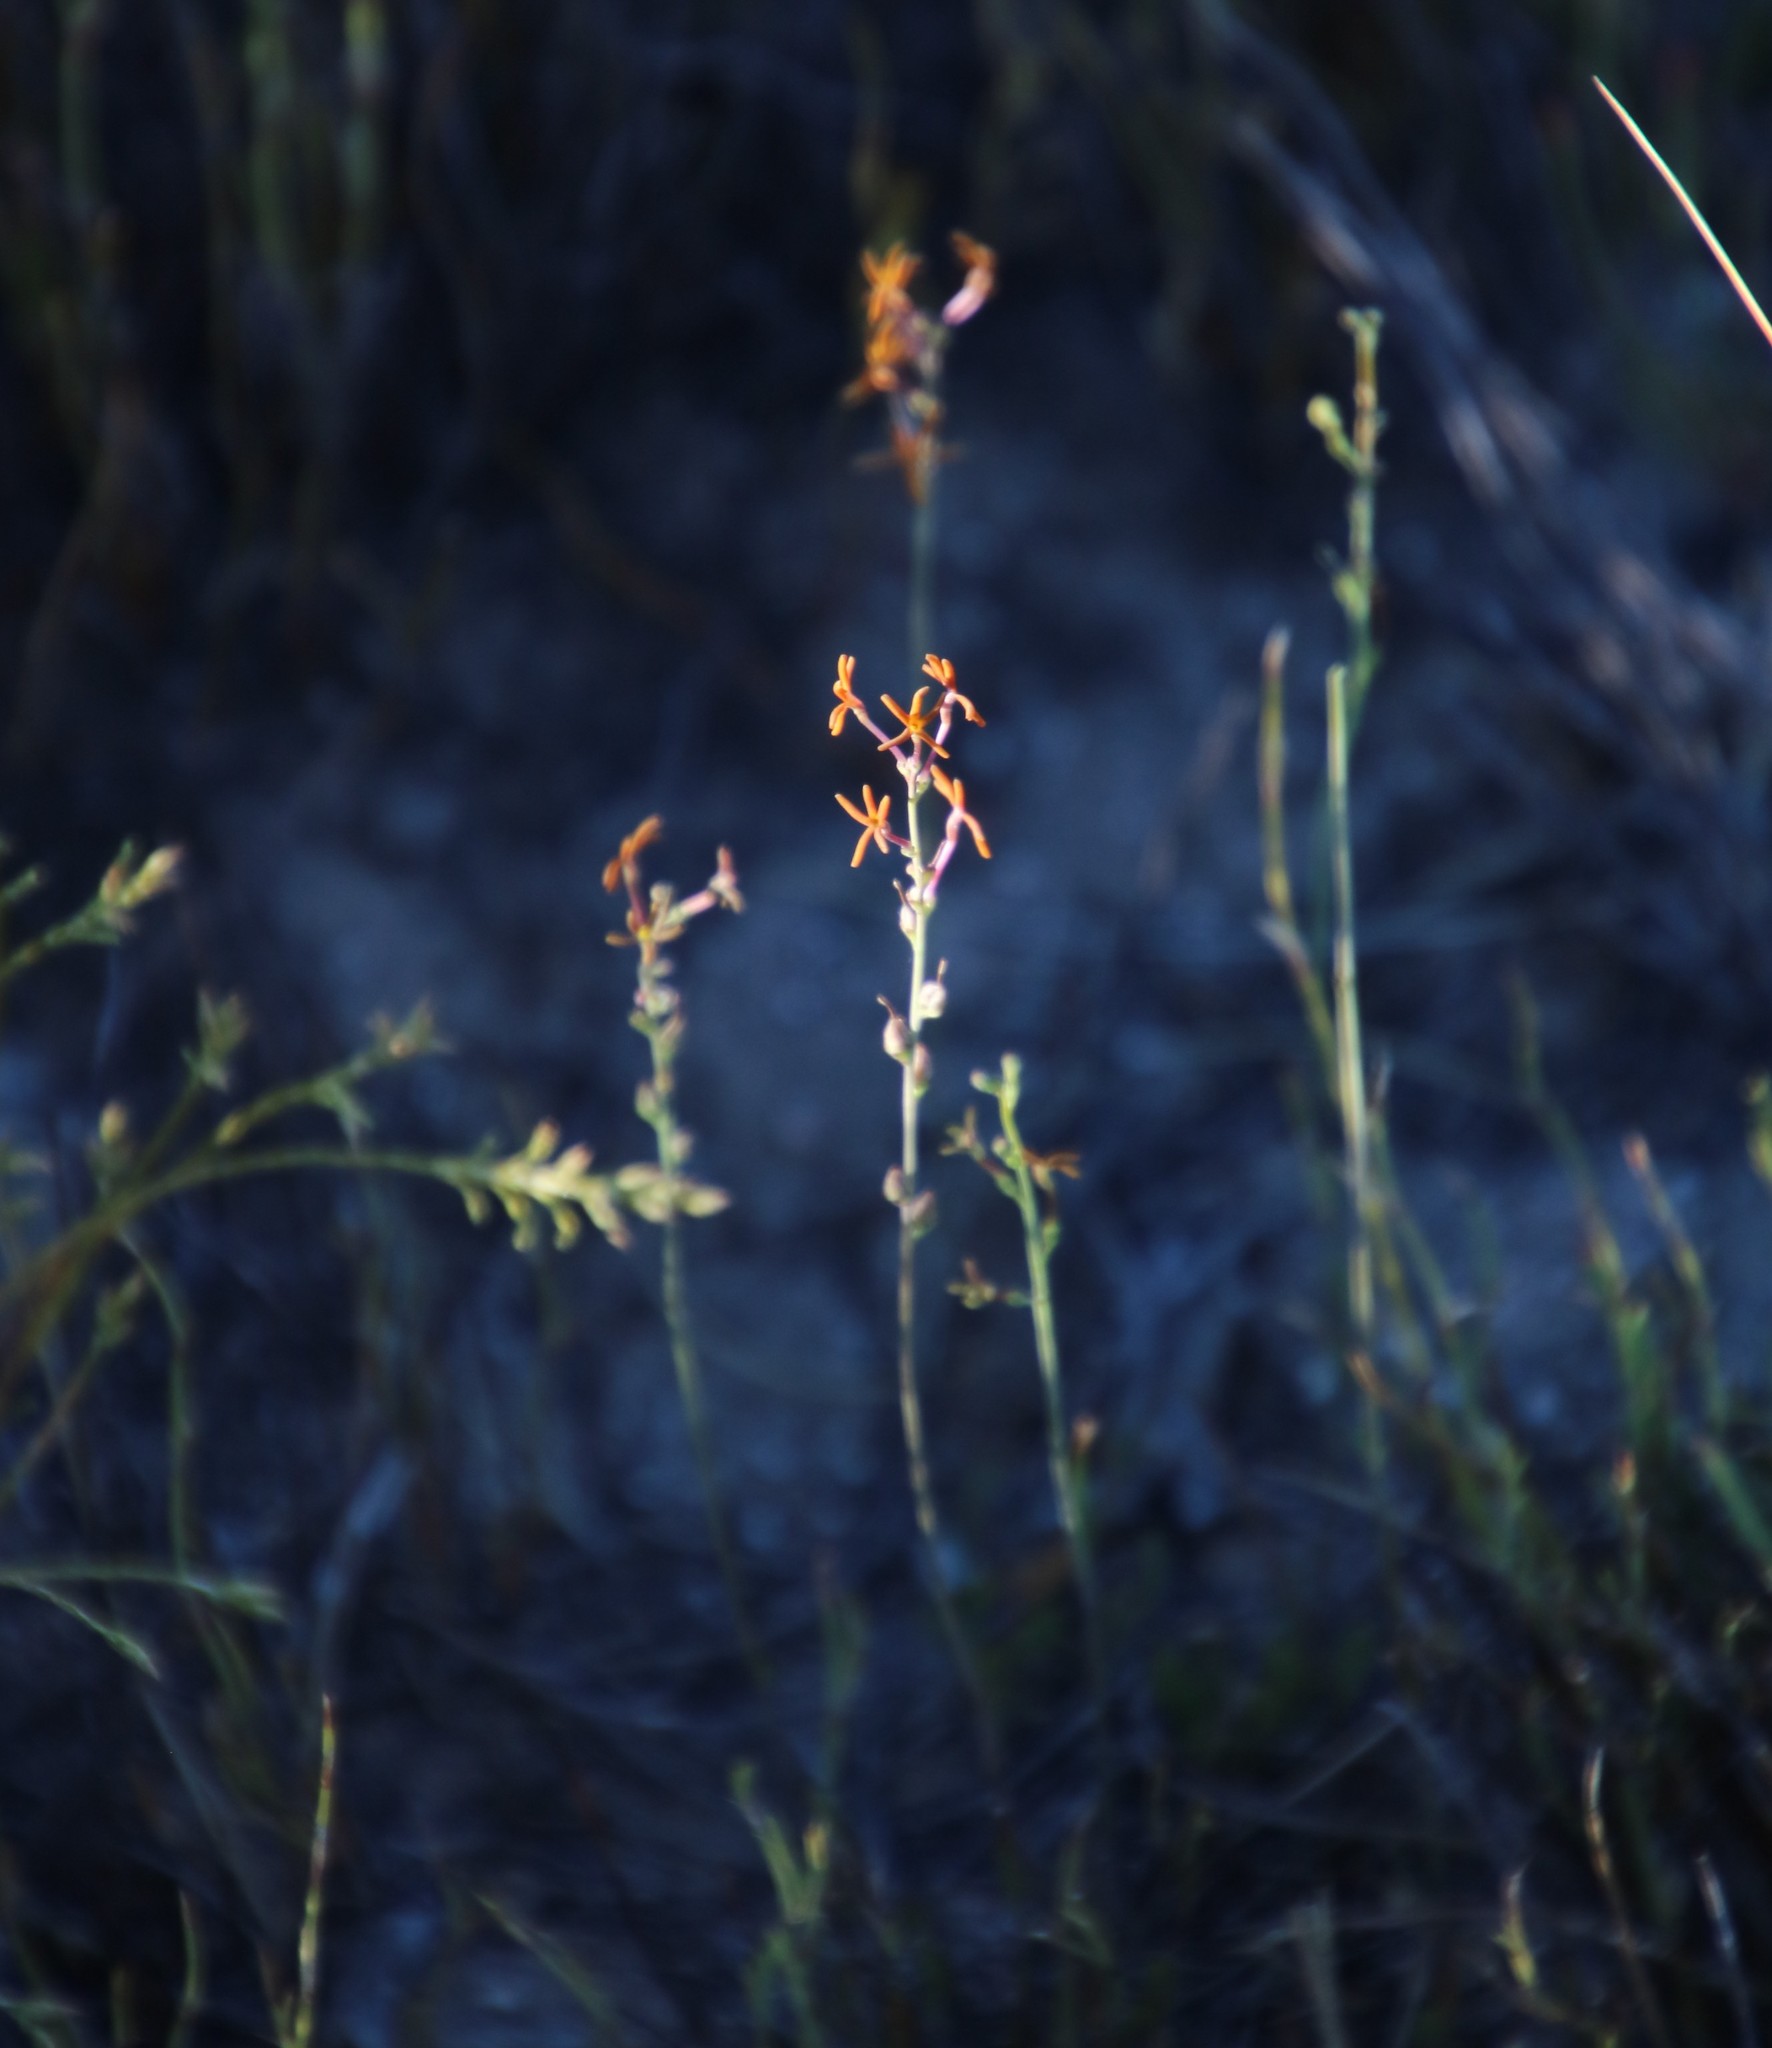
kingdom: Plantae
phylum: Tracheophyta
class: Magnoliopsida
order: Lamiales
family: Scrophulariaceae
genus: Jamesbrittenia
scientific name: Jamesbrittenia atropurpurea
